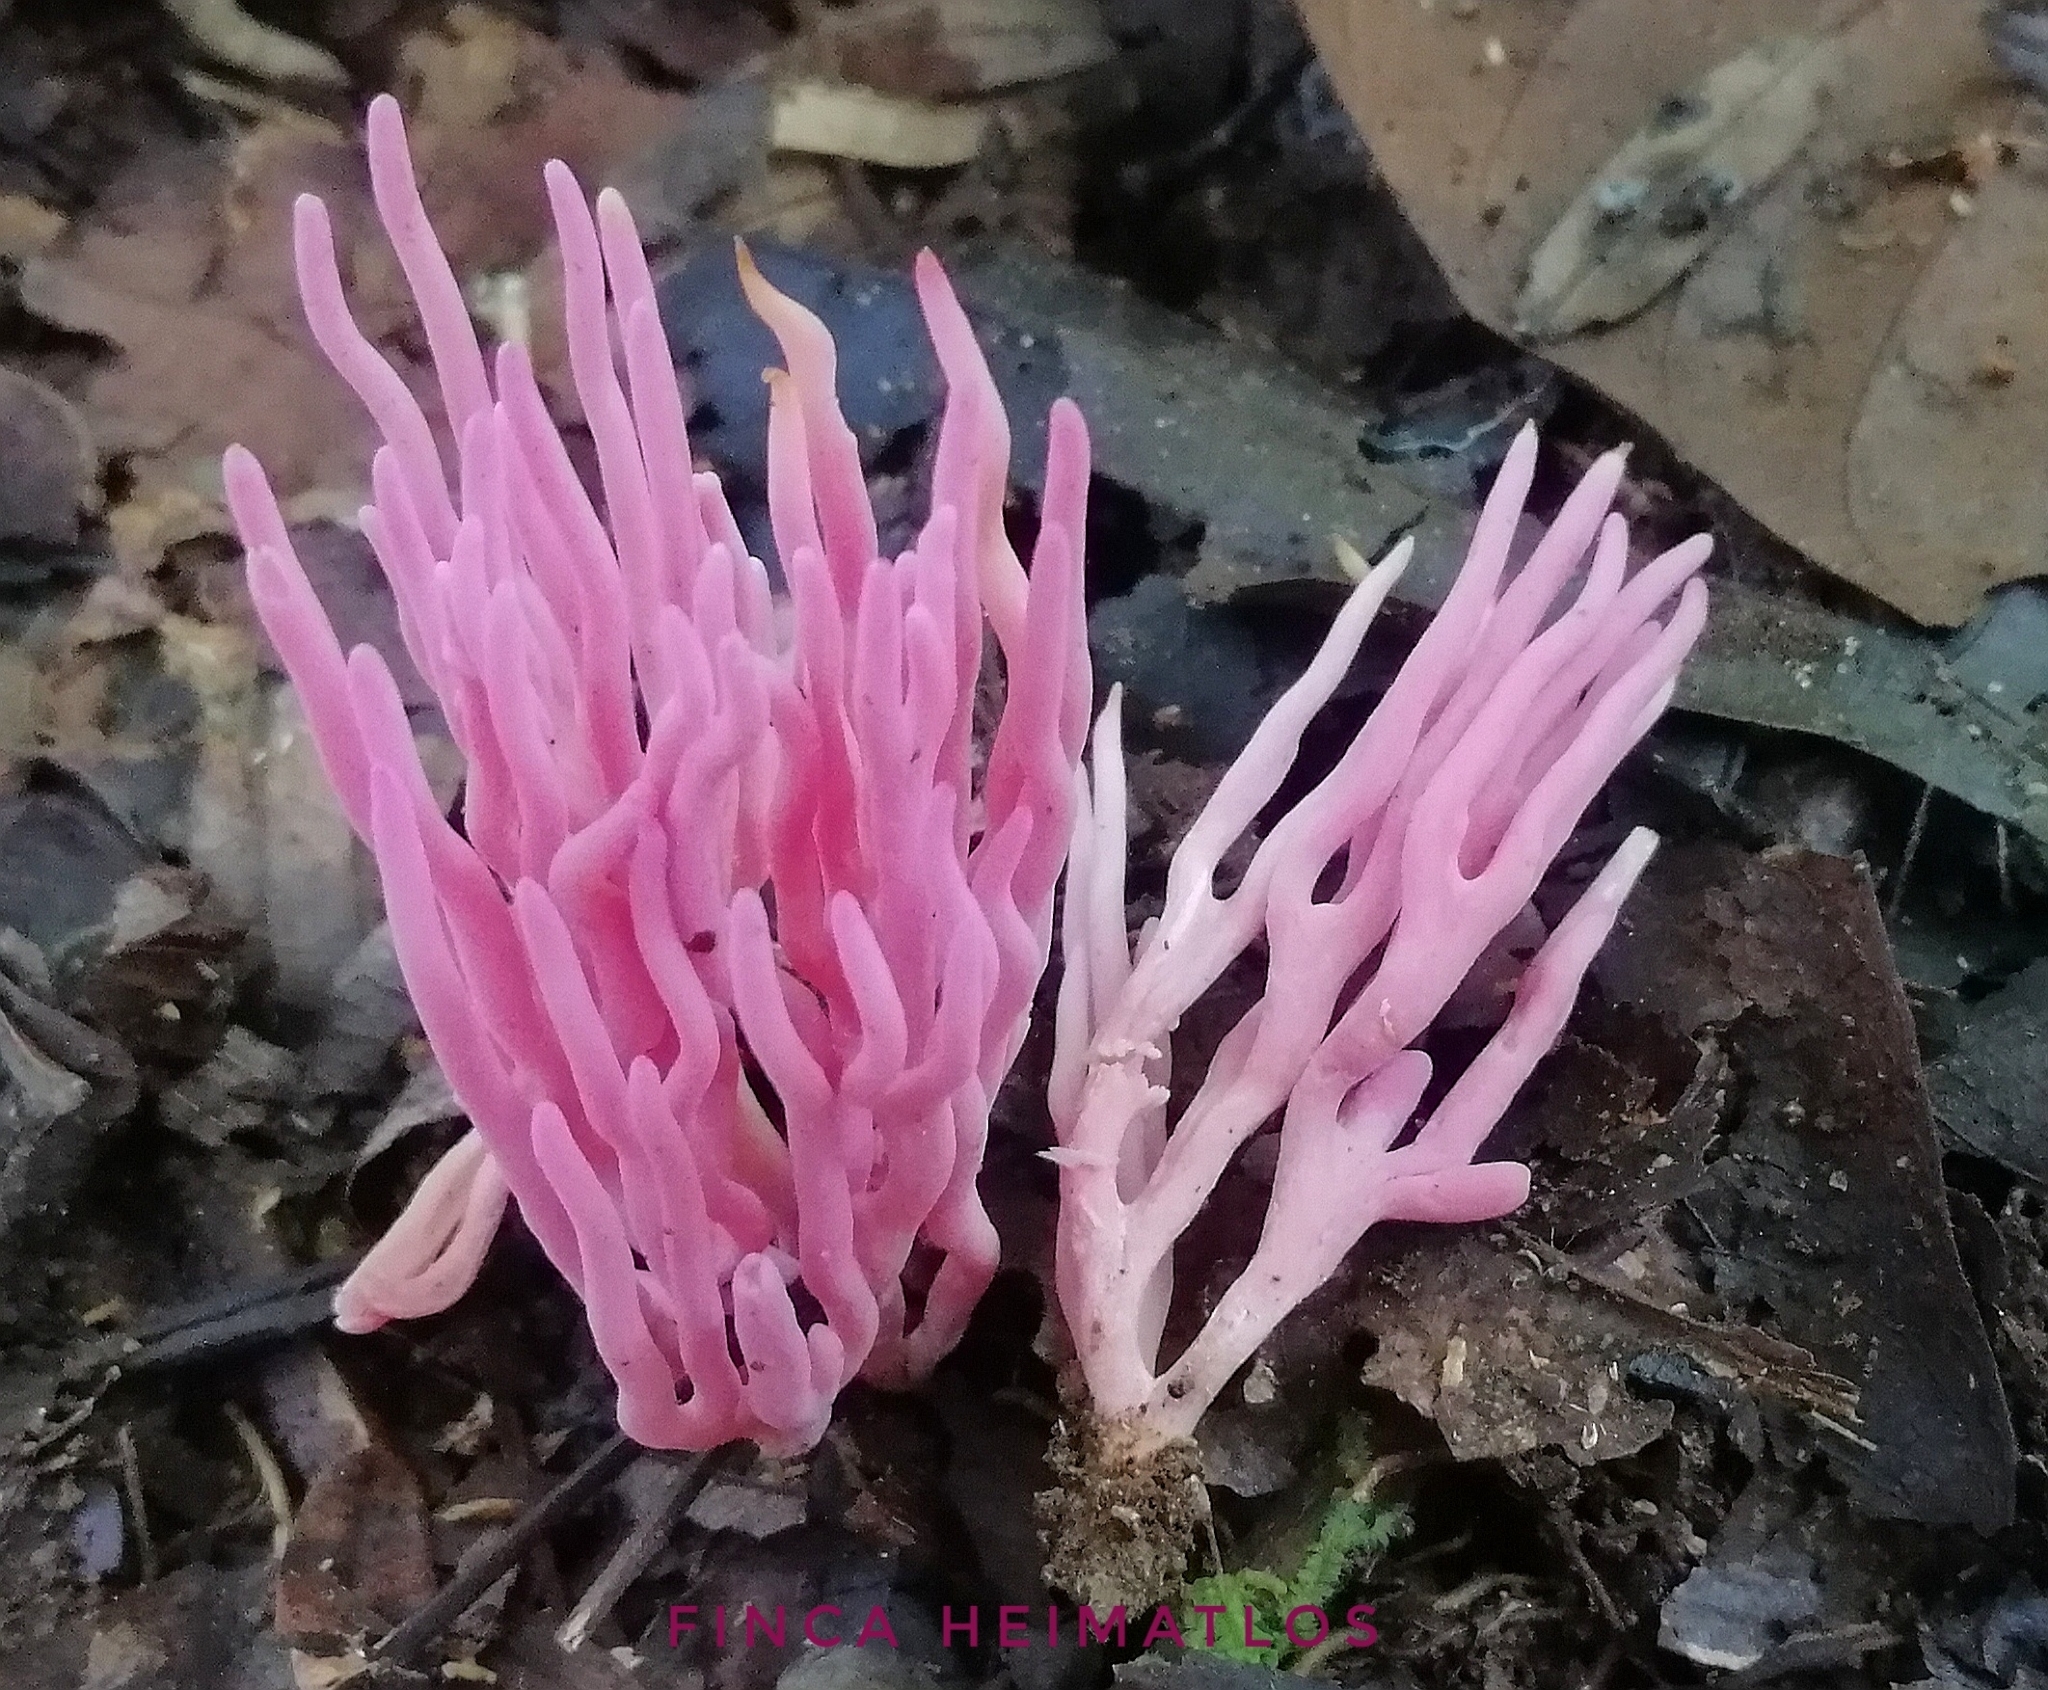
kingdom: Fungi
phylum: Basidiomycota
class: Agaricomycetes
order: Agaricales
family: Clavariaceae
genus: Clavaria
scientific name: Clavaria zollingeri
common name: Violet coral
